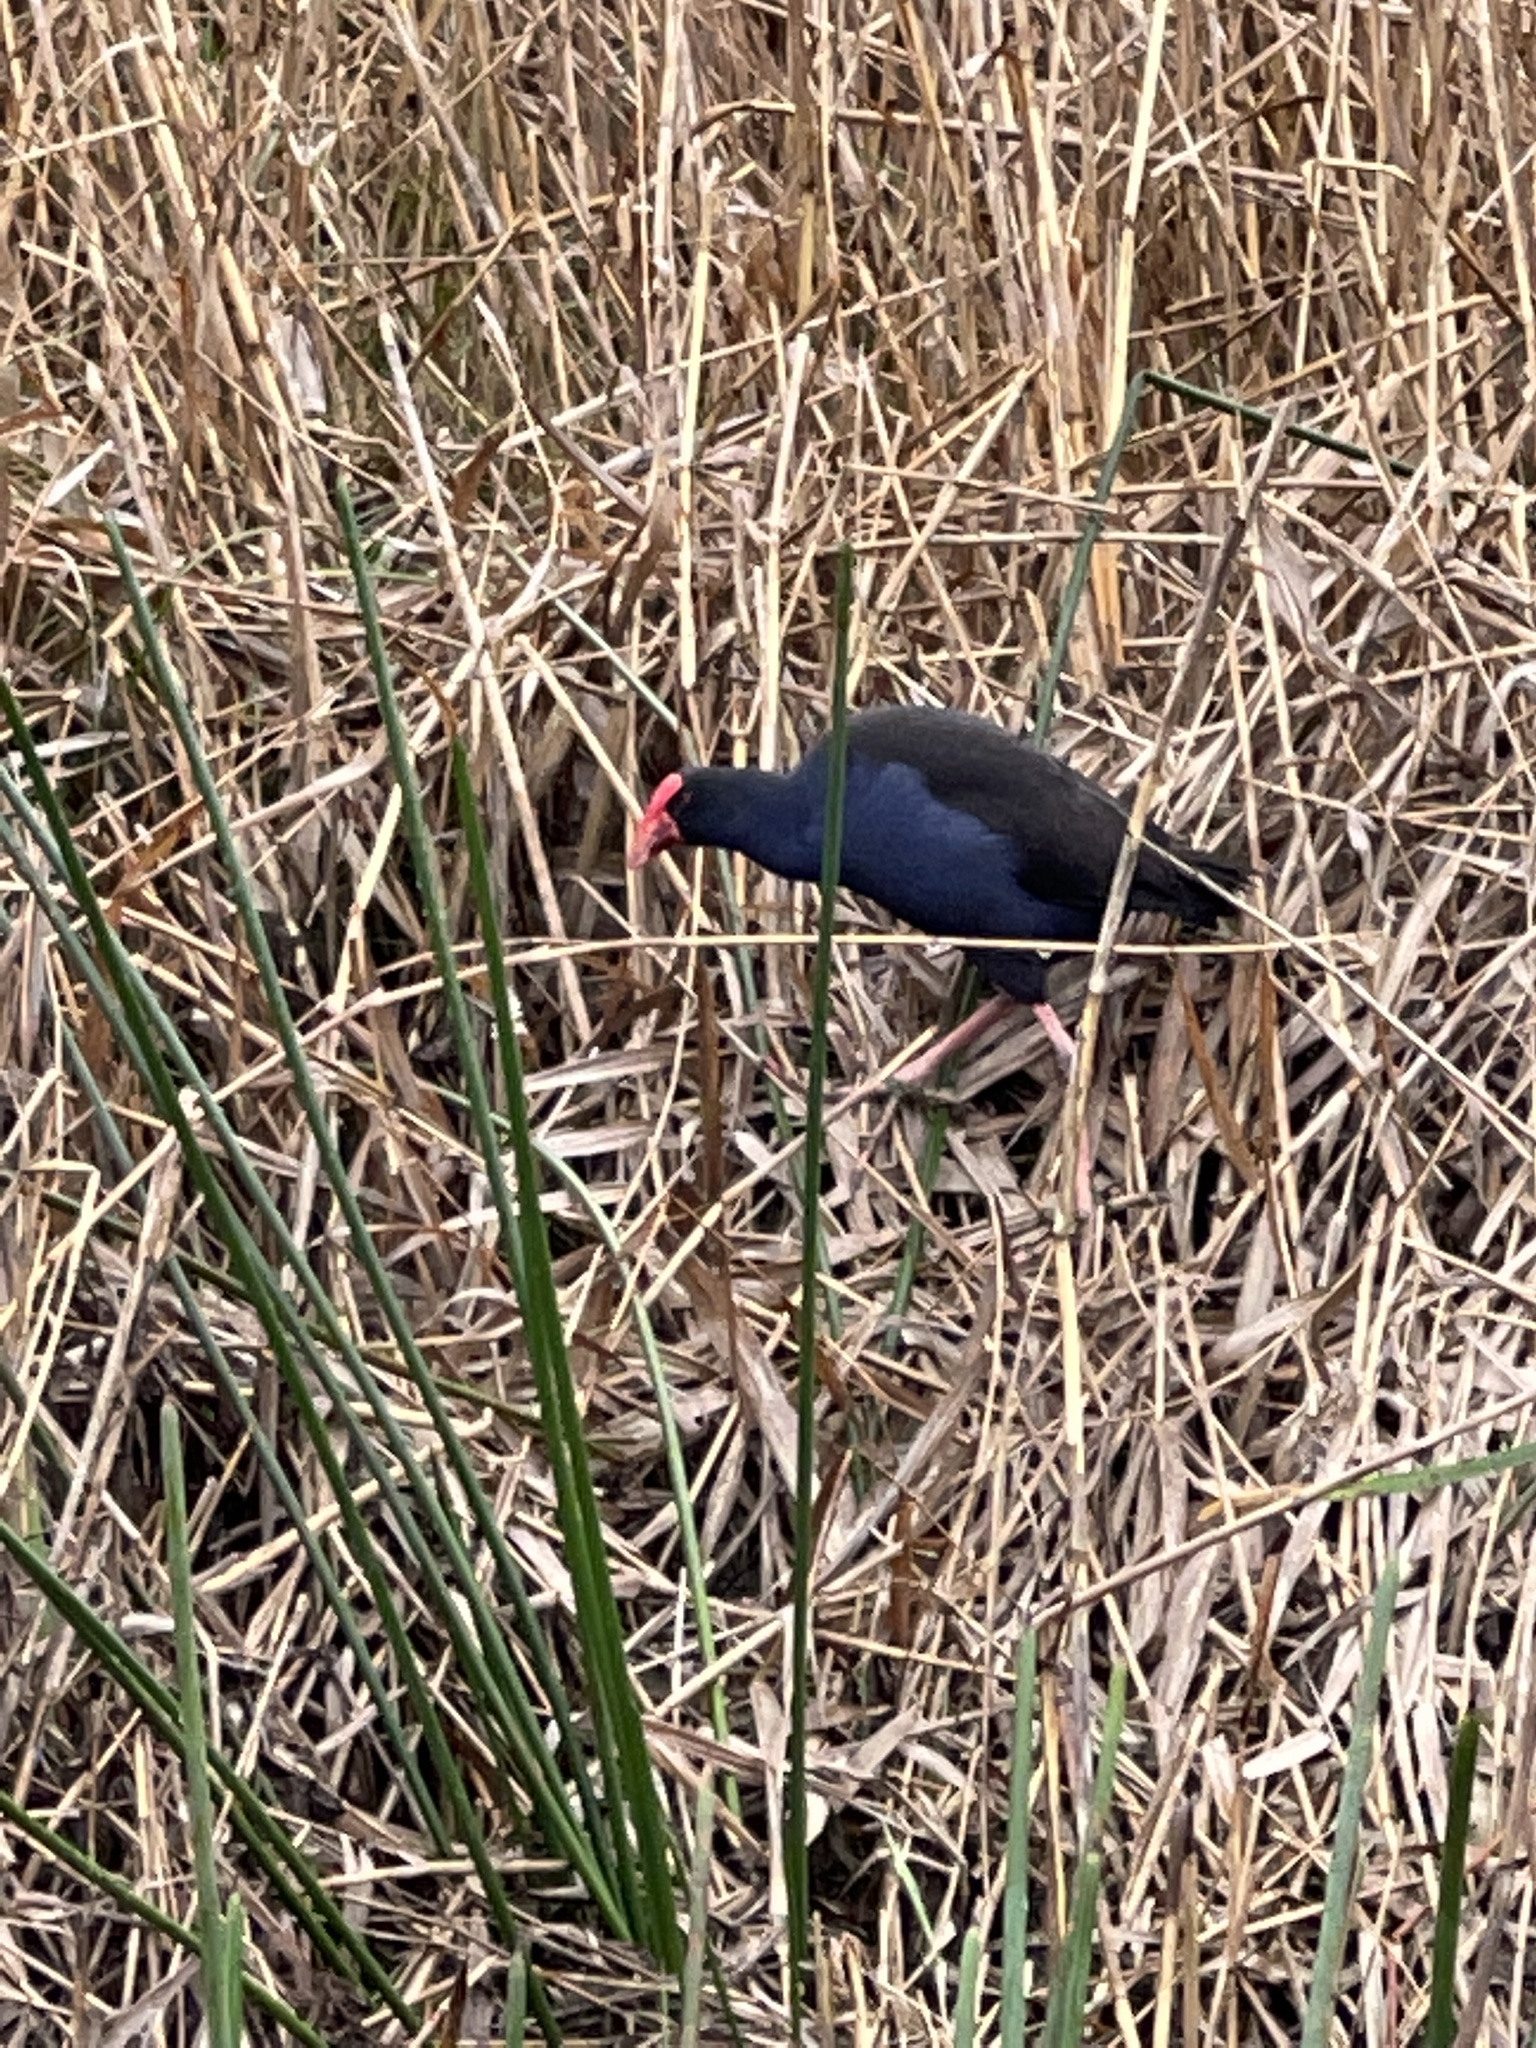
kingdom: Animalia
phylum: Chordata
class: Aves
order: Gruiformes
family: Rallidae
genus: Porphyrio
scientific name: Porphyrio melanotus
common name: Australasian swamphen
